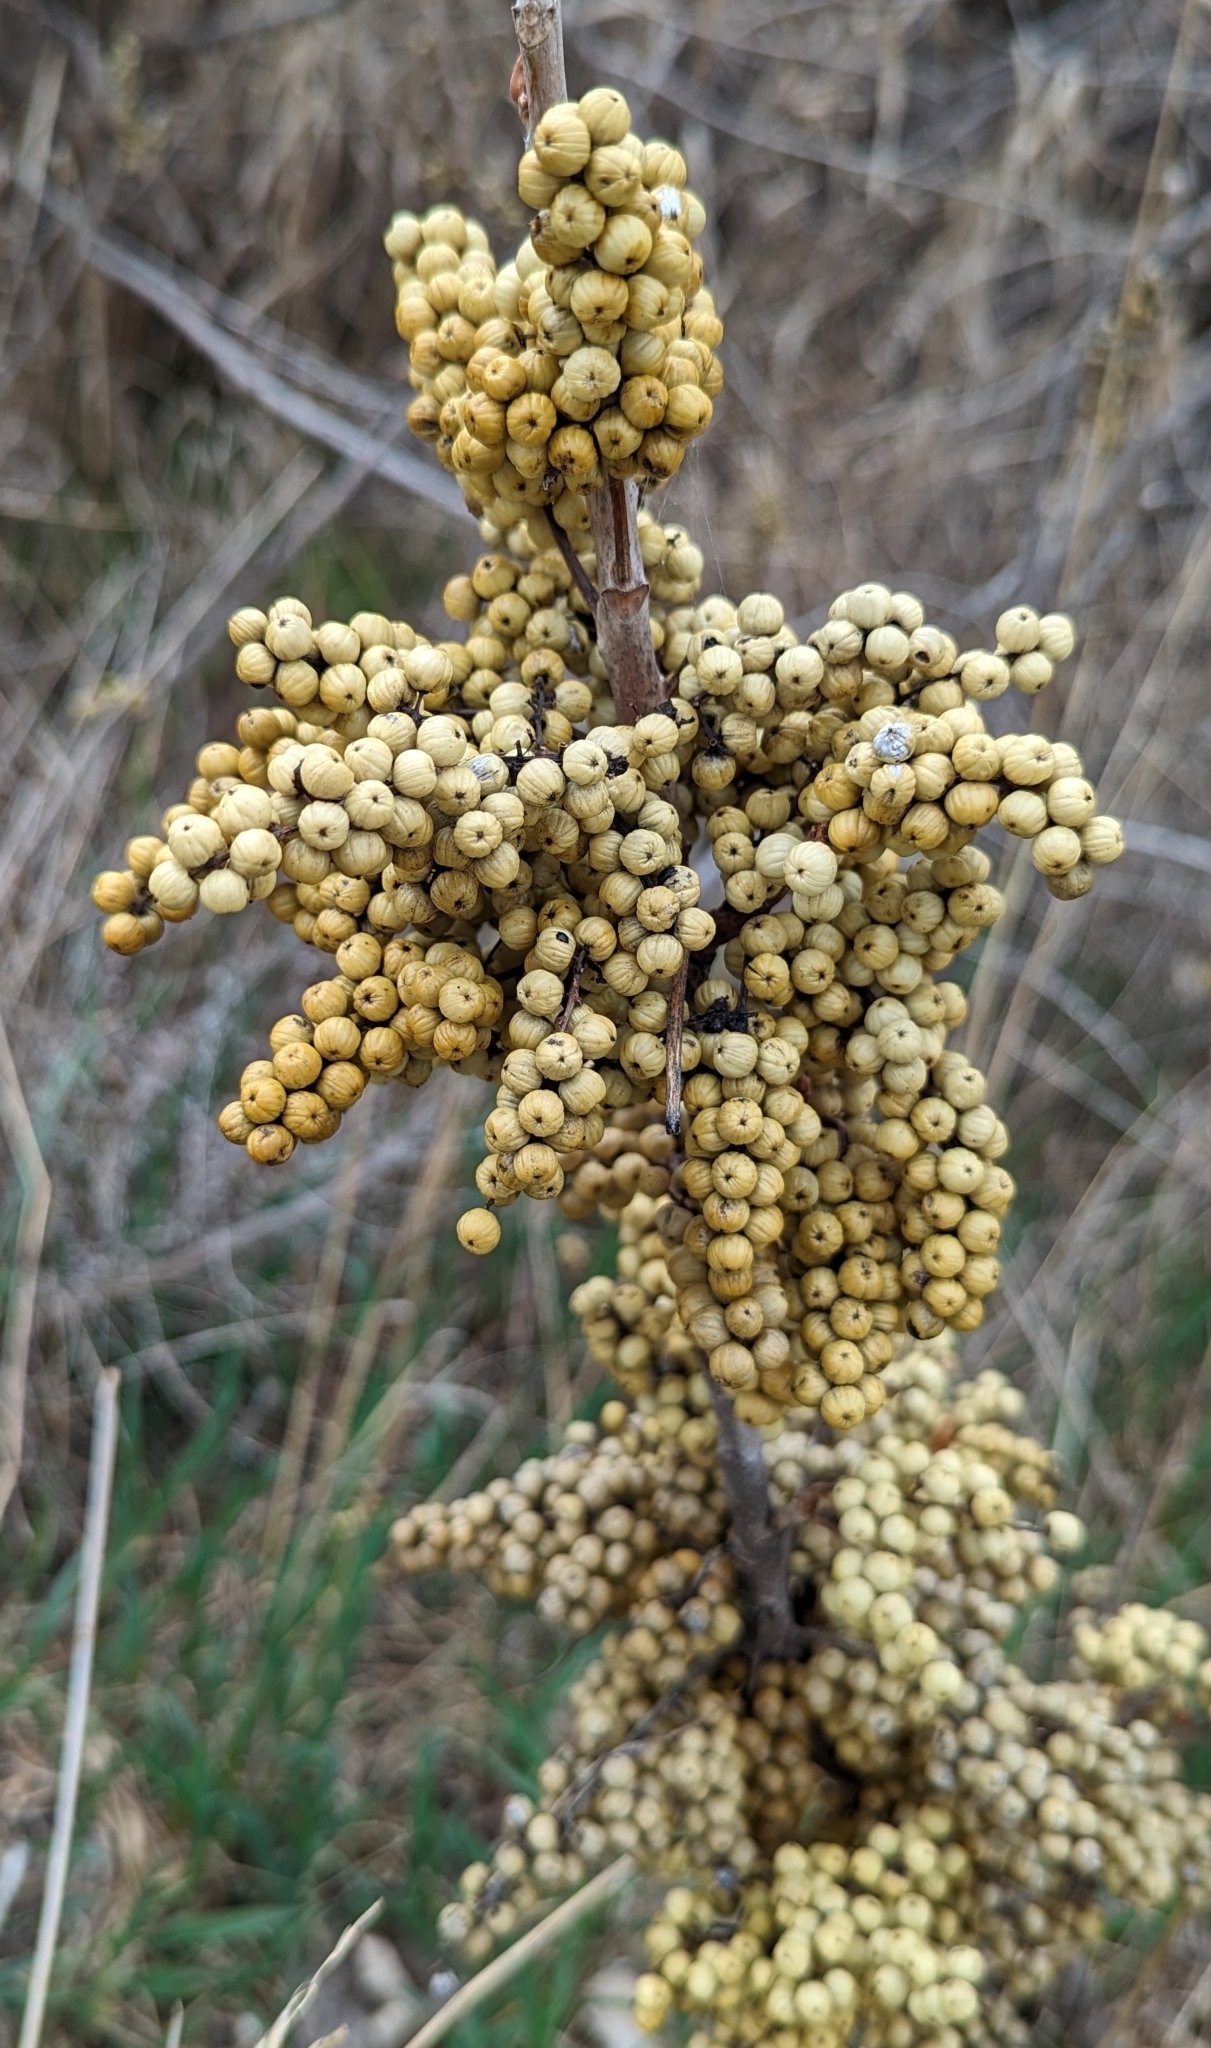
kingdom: Plantae
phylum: Tracheophyta
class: Magnoliopsida
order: Sapindales
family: Anacardiaceae
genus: Toxicodendron
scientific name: Toxicodendron rydbergii
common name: Rydberg's poison-ivy
